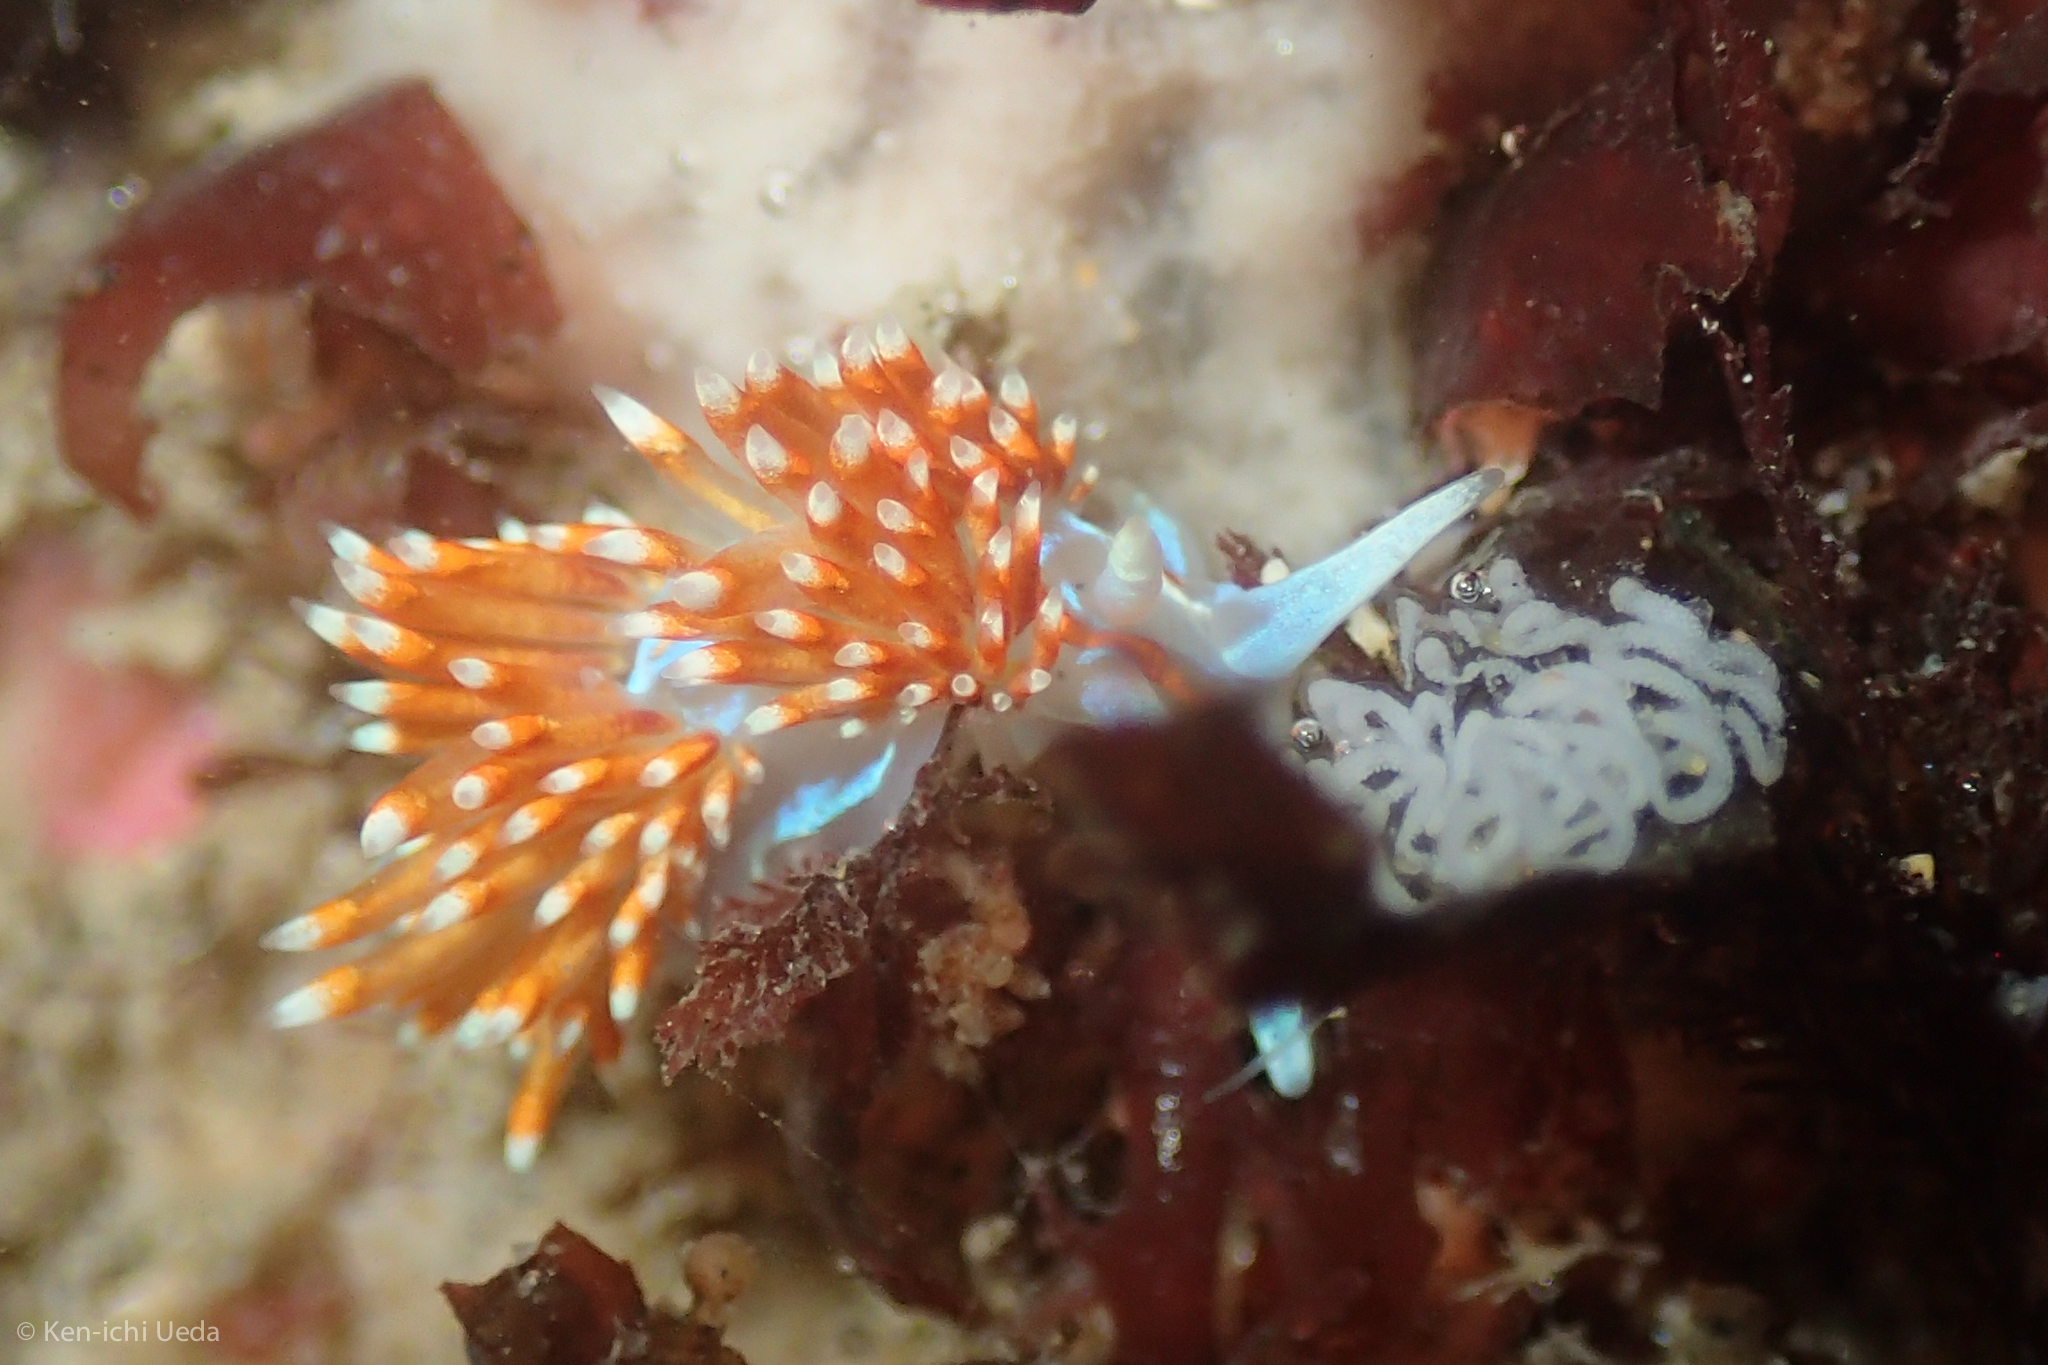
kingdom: Animalia
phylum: Mollusca
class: Gastropoda
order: Nudibranchia
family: Myrrhinidae
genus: Hermissenda
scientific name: Hermissenda opalescens
